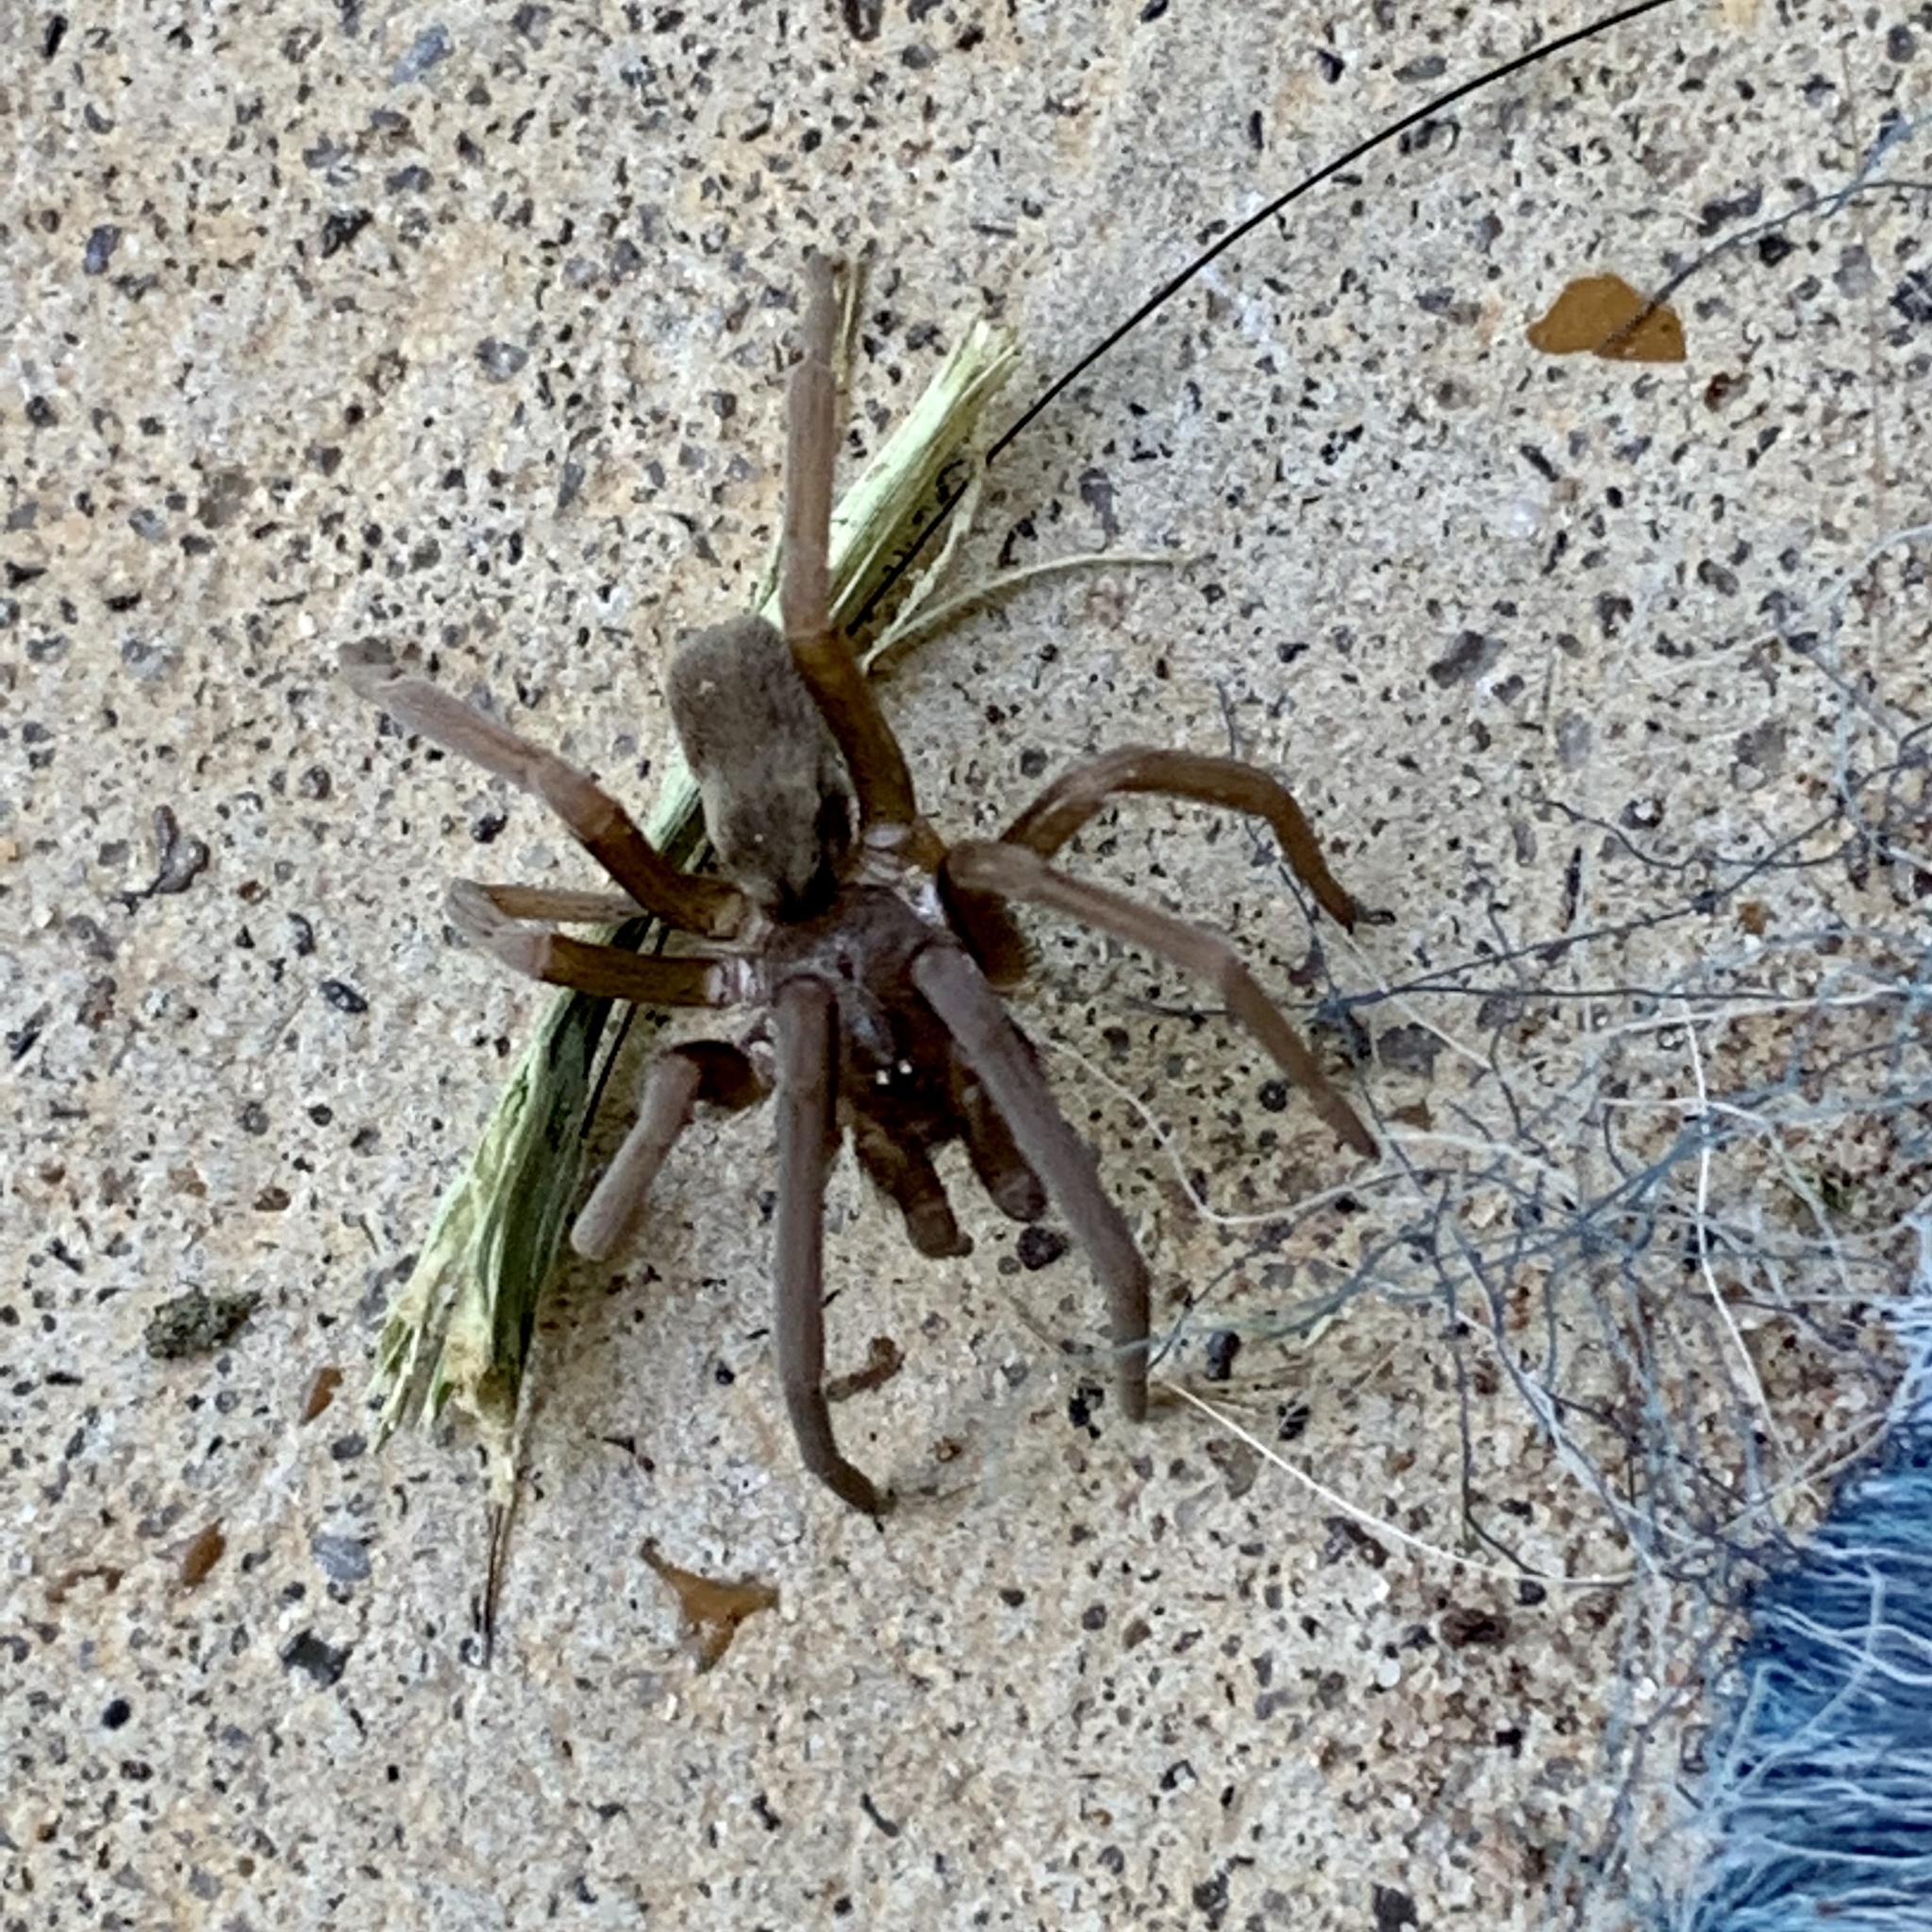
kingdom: Animalia
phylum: Arthropoda
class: Arachnida
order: Araneae
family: Filistatidae
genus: Kukulcania
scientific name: Kukulcania hibernalis
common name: Crevice weaver
